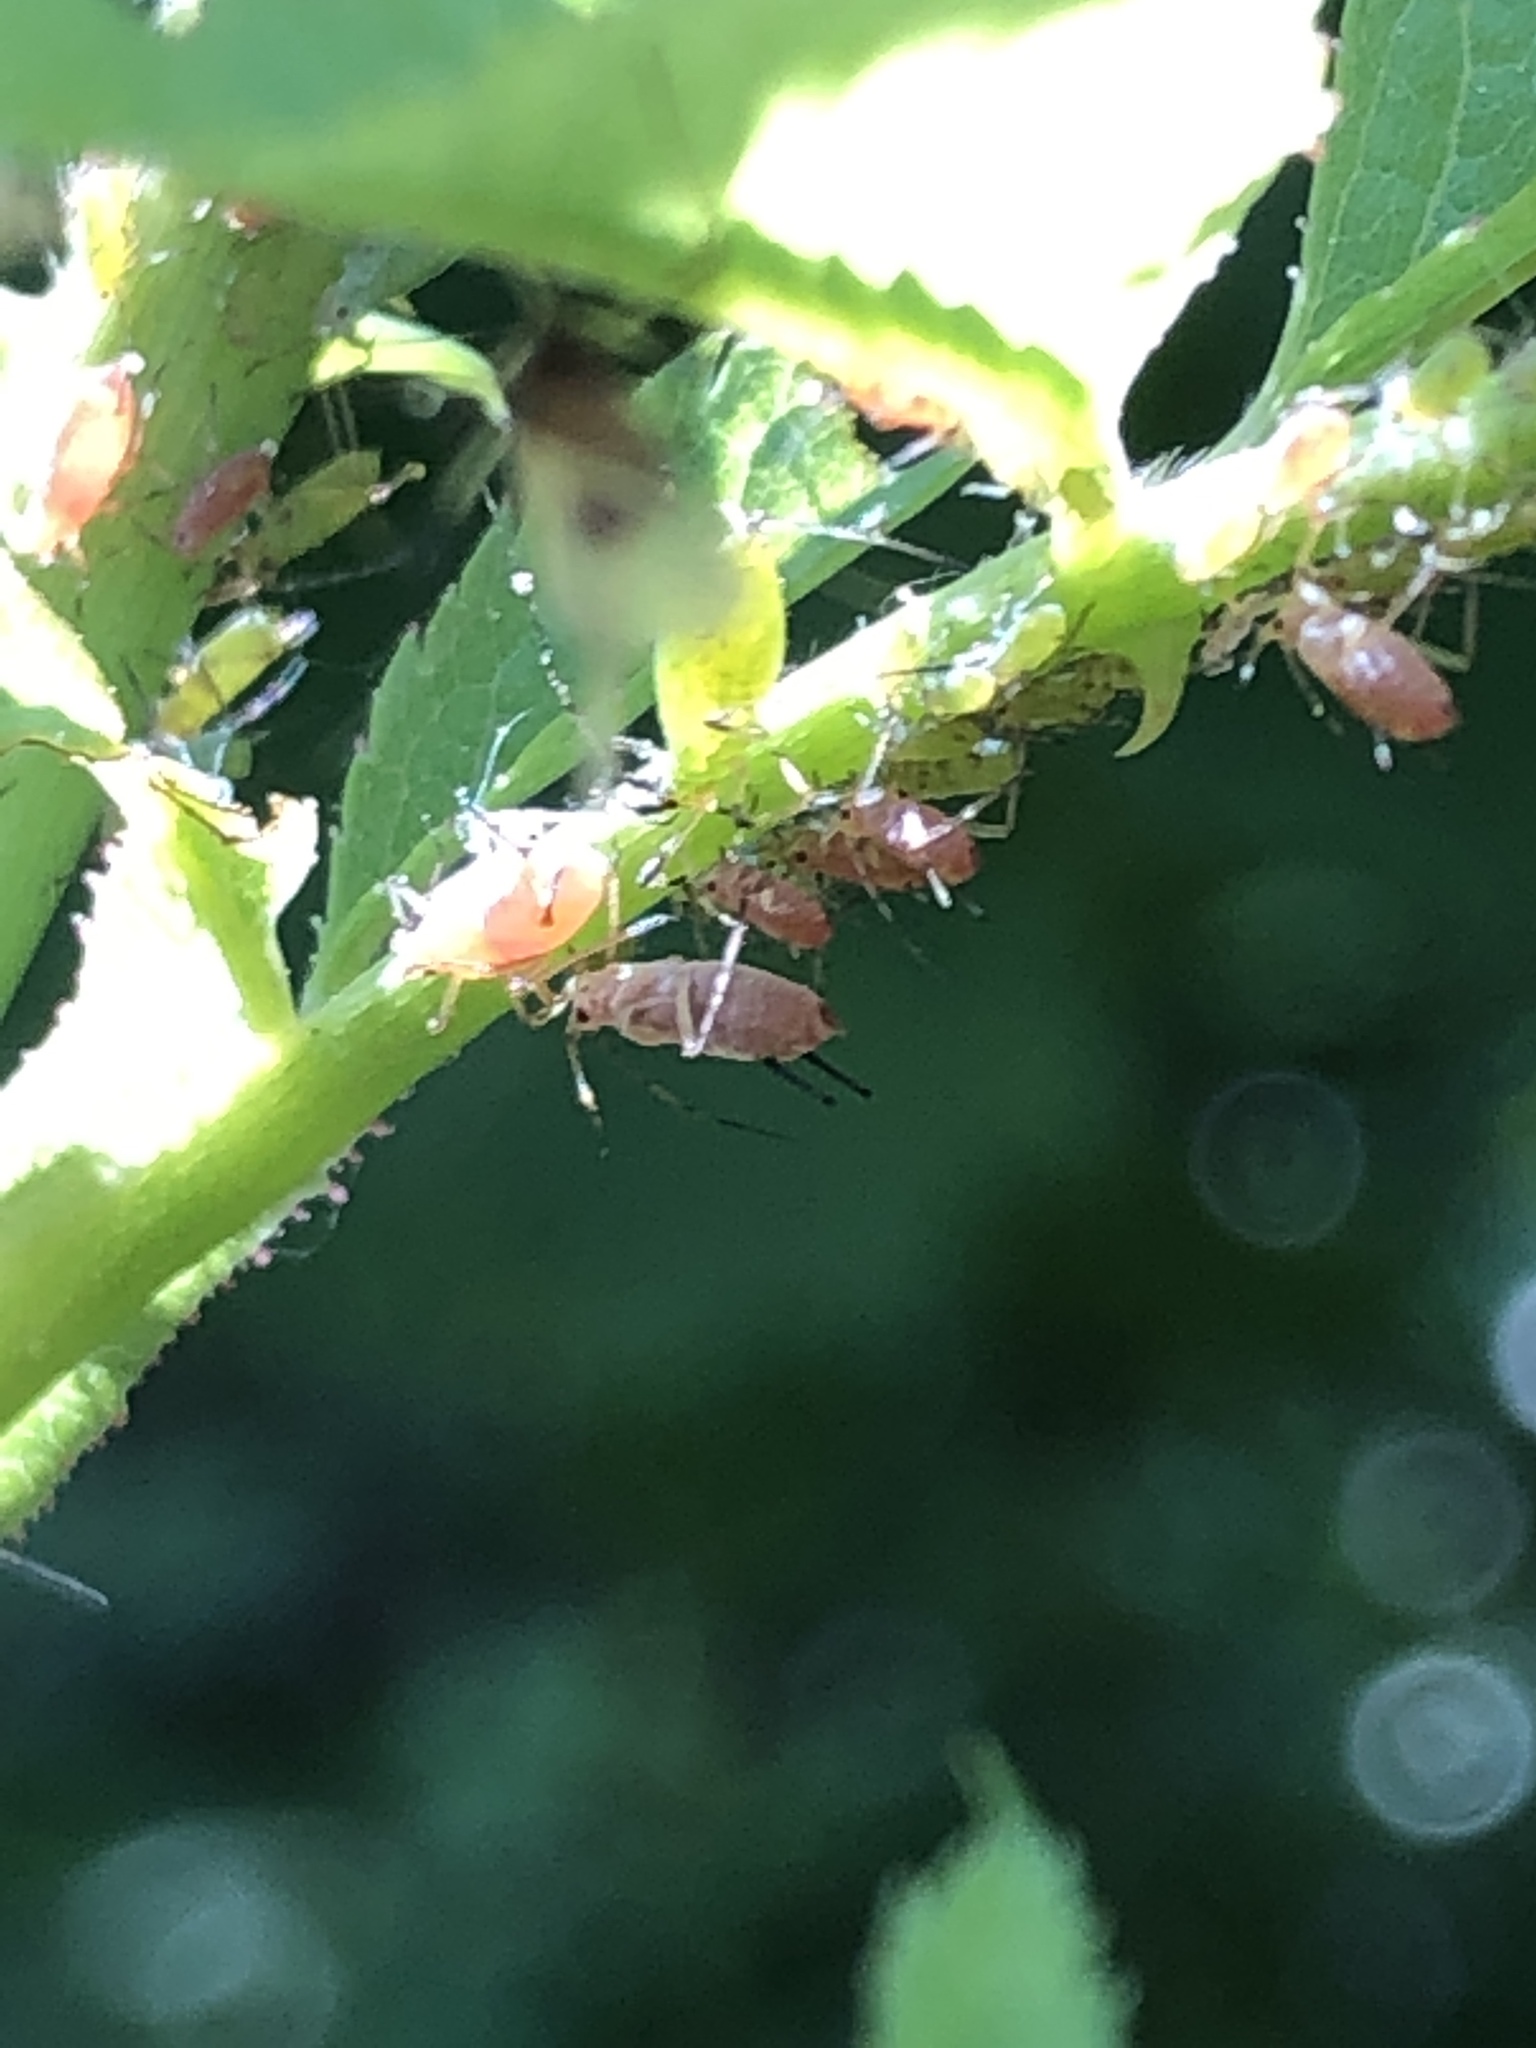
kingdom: Animalia
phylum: Arthropoda
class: Insecta
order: Hemiptera
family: Aphididae
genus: Macrosiphum
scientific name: Macrosiphum rosae
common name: Rose aphid
